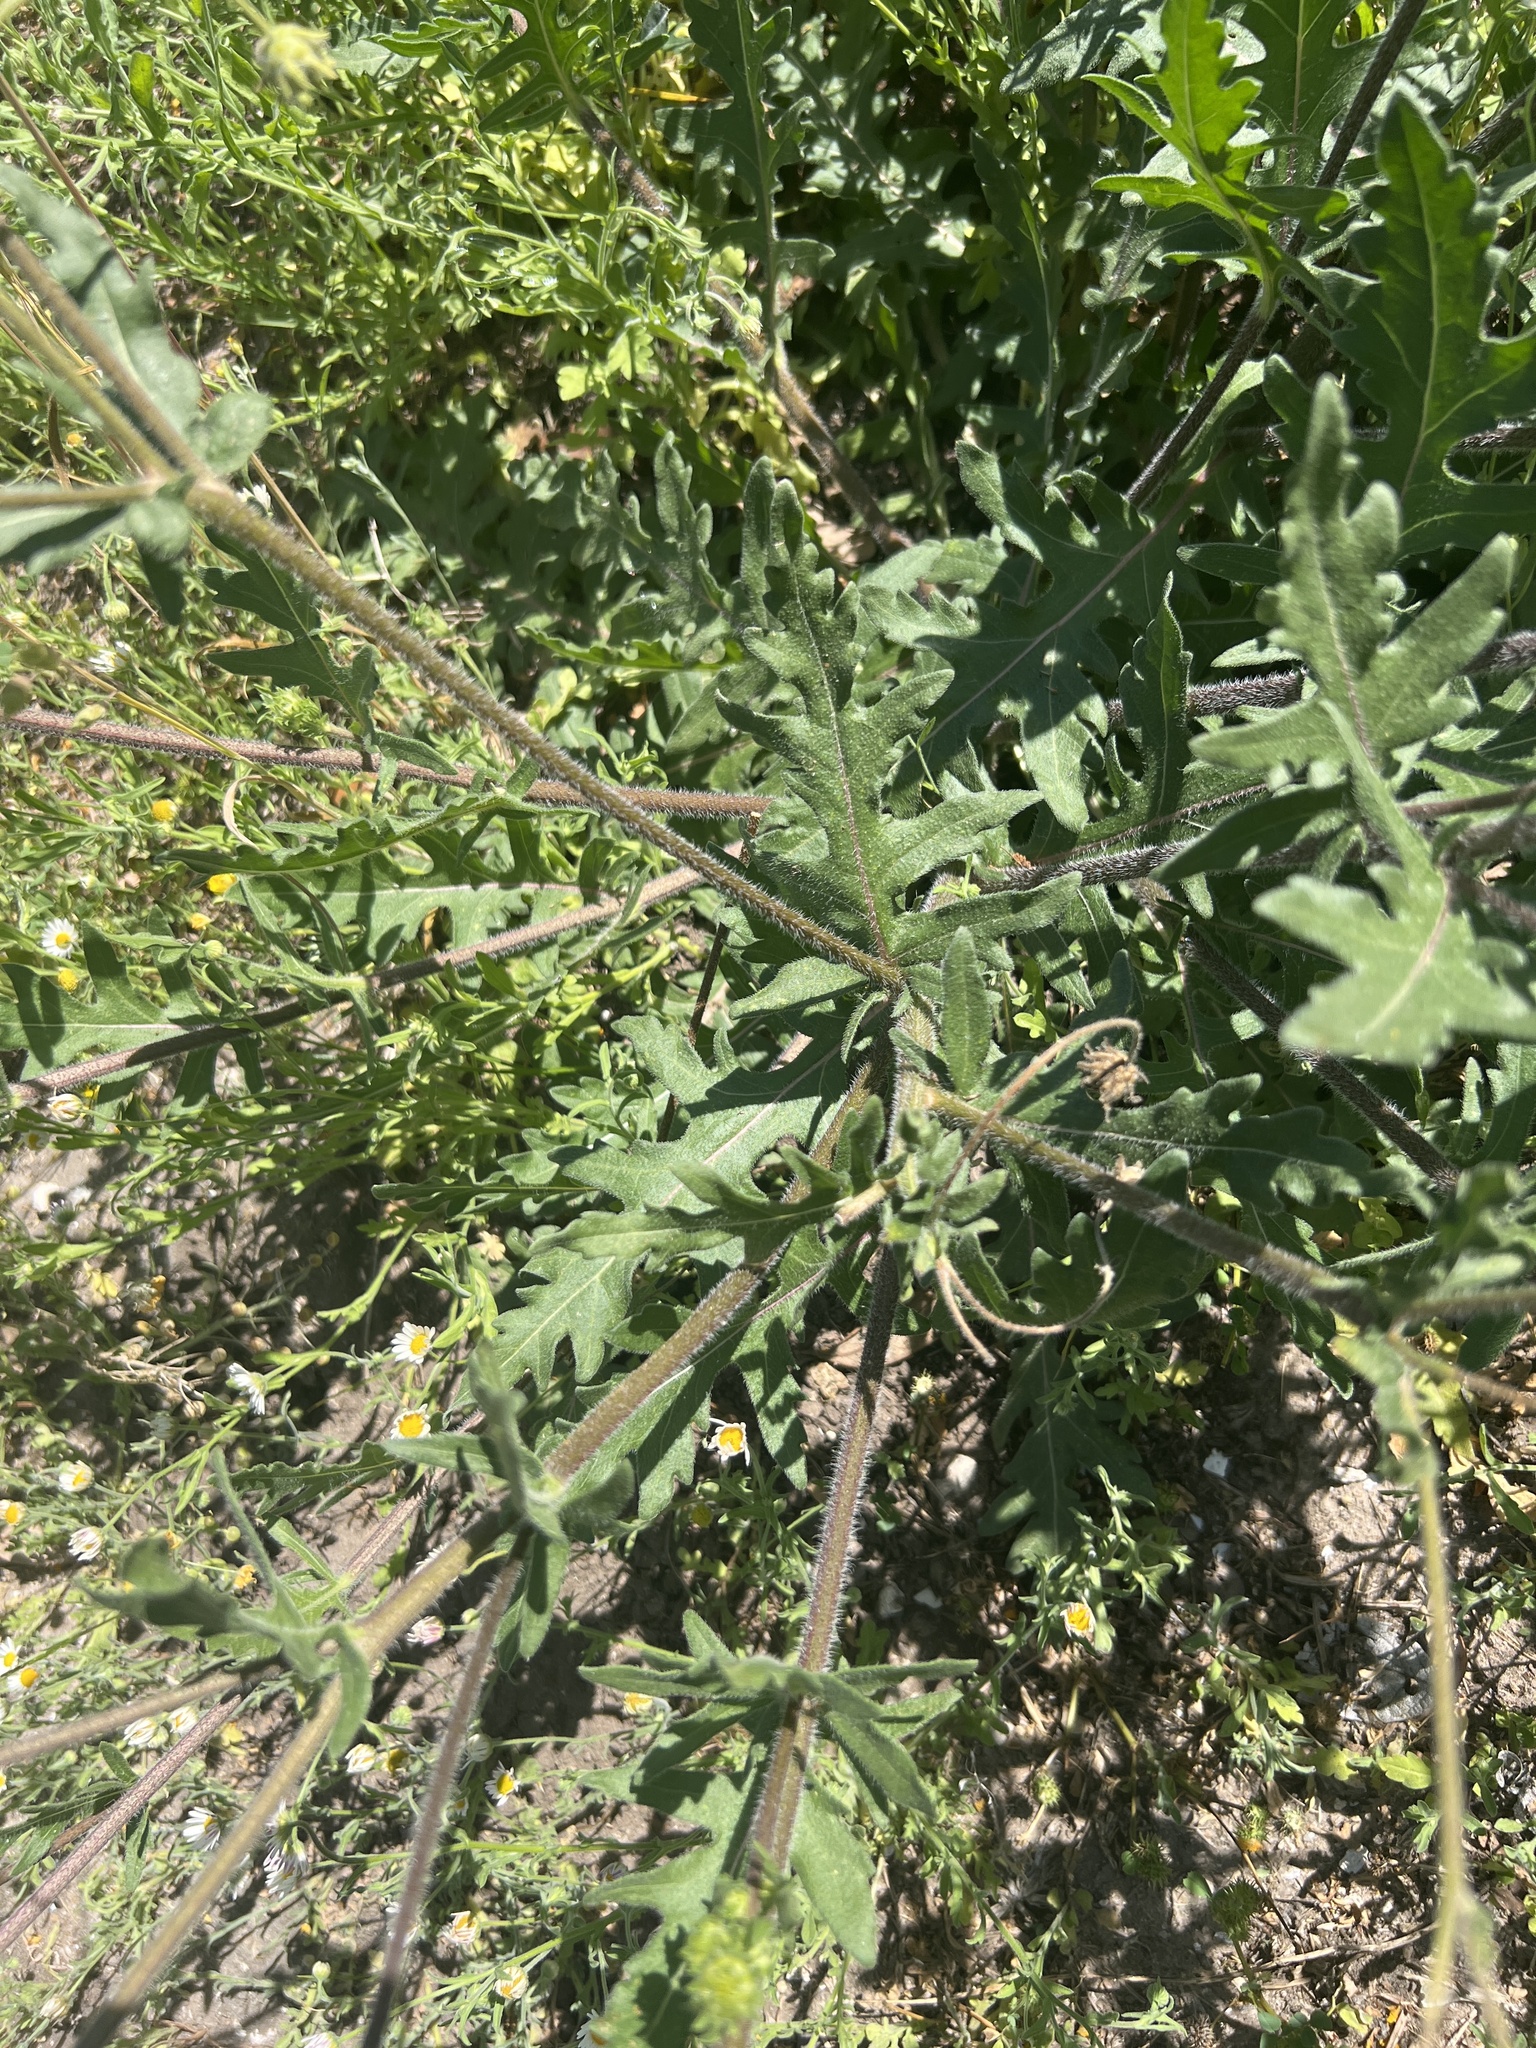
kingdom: Plantae
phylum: Tracheophyta
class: Magnoliopsida
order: Asterales
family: Asteraceae
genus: Engelmannia
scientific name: Engelmannia peristenia
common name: Engelmann's daisy
